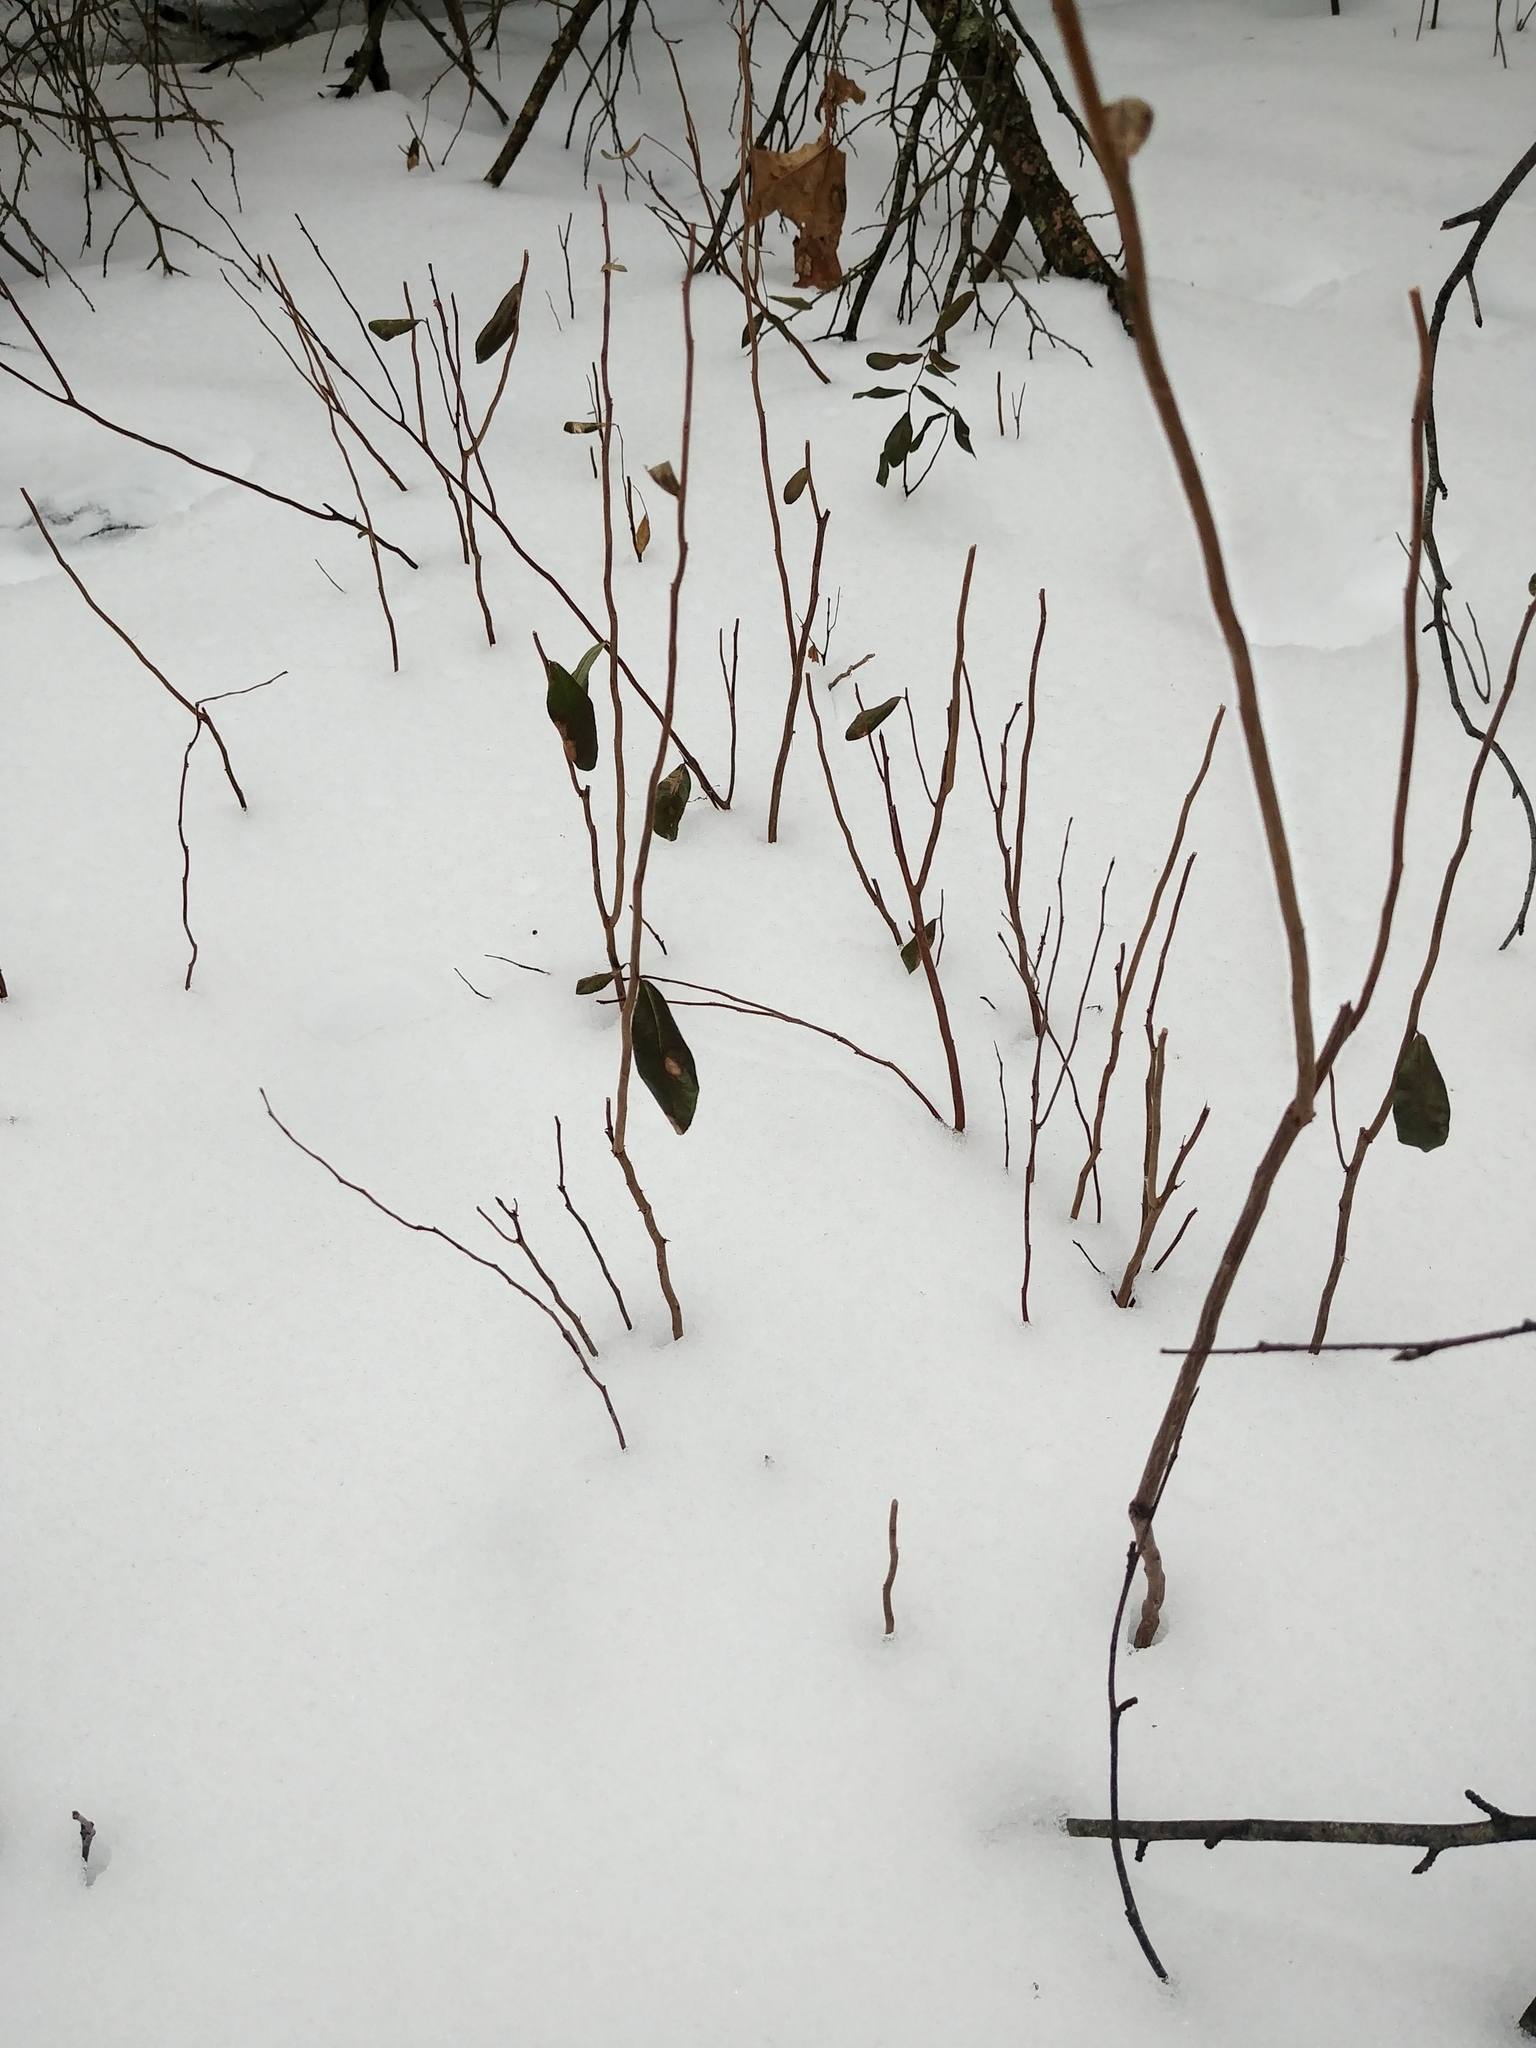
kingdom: Plantae
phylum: Tracheophyta
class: Magnoliopsida
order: Rosales
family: Elaeagnaceae
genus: Elaeagnus
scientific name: Elaeagnus umbellata
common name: Autumn olive
